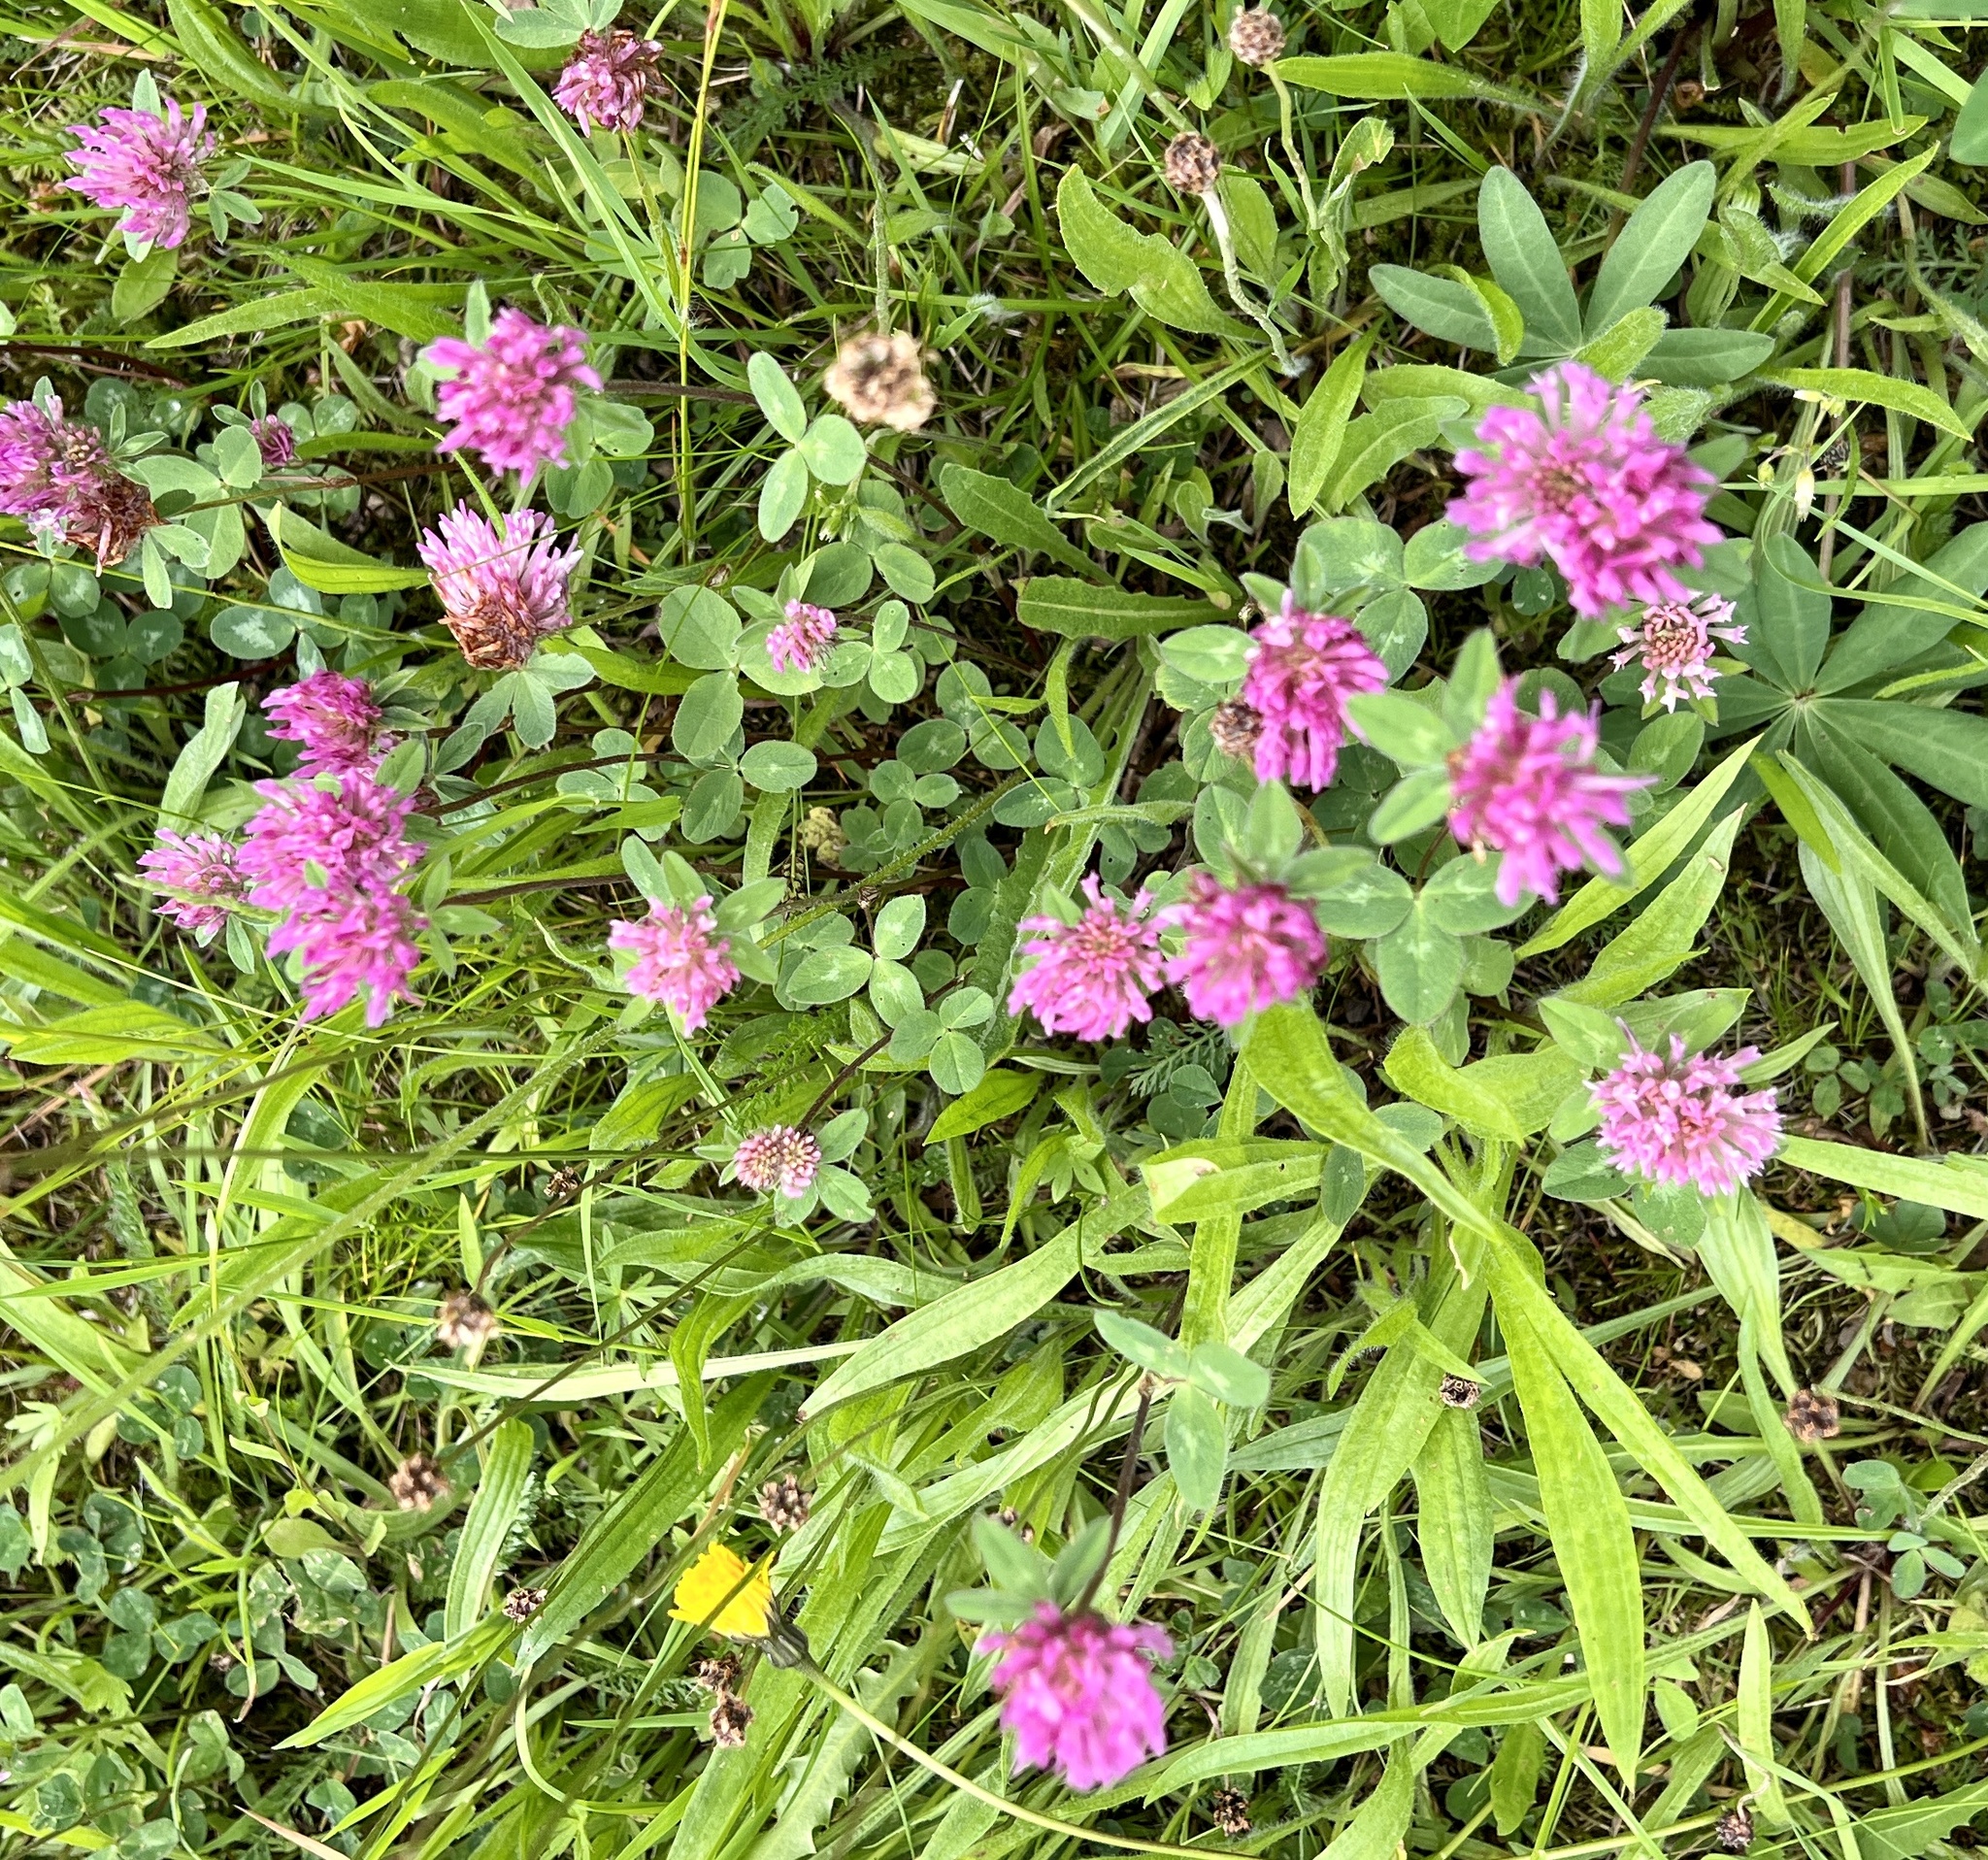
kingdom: Plantae
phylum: Tracheophyta
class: Magnoliopsida
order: Fabales
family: Fabaceae
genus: Trifolium
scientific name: Trifolium pratense
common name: Red clover
